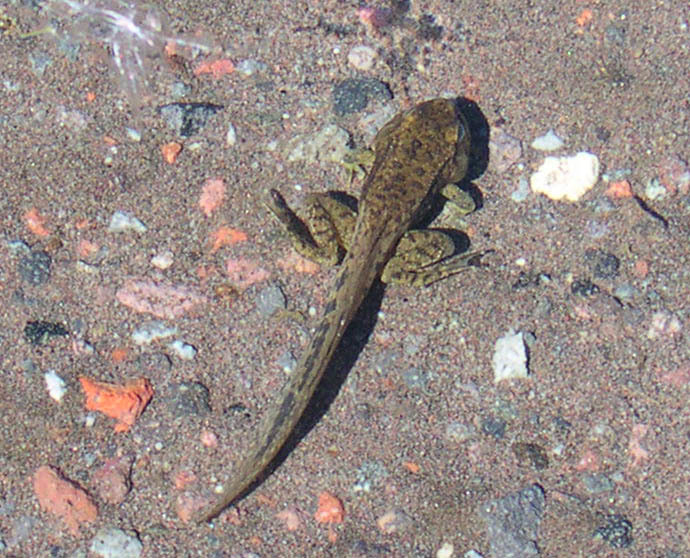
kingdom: Animalia
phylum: Chordata
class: Amphibia
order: Anura
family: Bufonidae
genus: Anaxyrus
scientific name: Anaxyrus boreas
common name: Western toad
